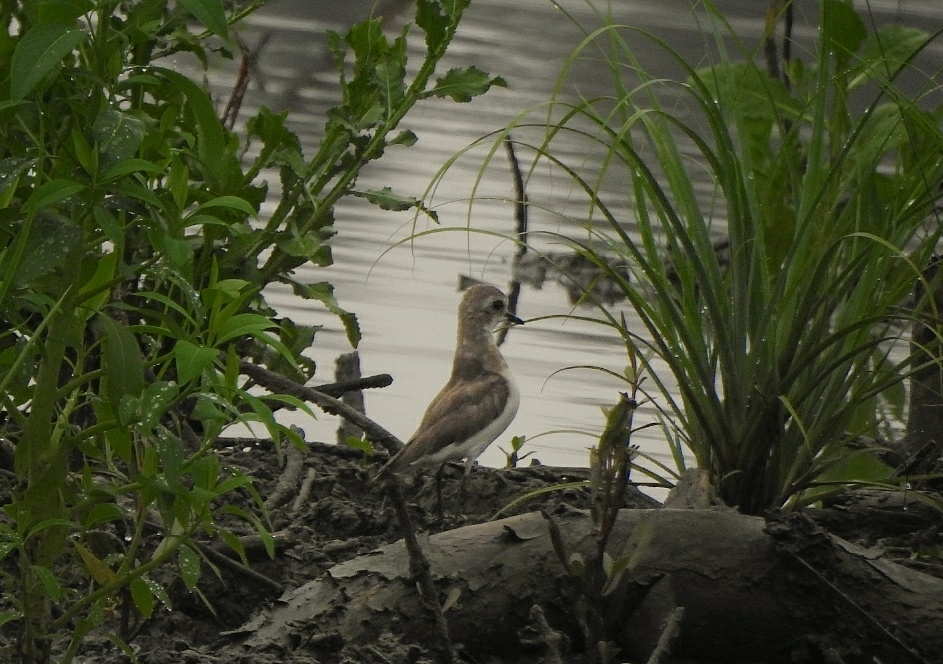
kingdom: Animalia
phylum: Chordata
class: Aves
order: Charadriiformes
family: Charadriidae
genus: Anarhynchus
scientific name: Anarhynchus
